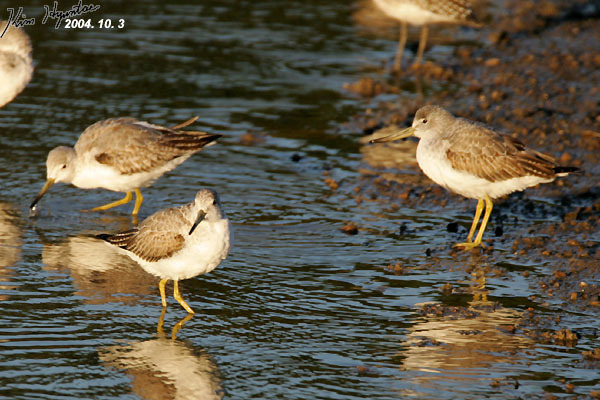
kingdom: Animalia
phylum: Chordata
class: Aves
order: Charadriiformes
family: Scolopacidae
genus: Tringa
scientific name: Tringa guttifer
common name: Nordmann's greenshank
